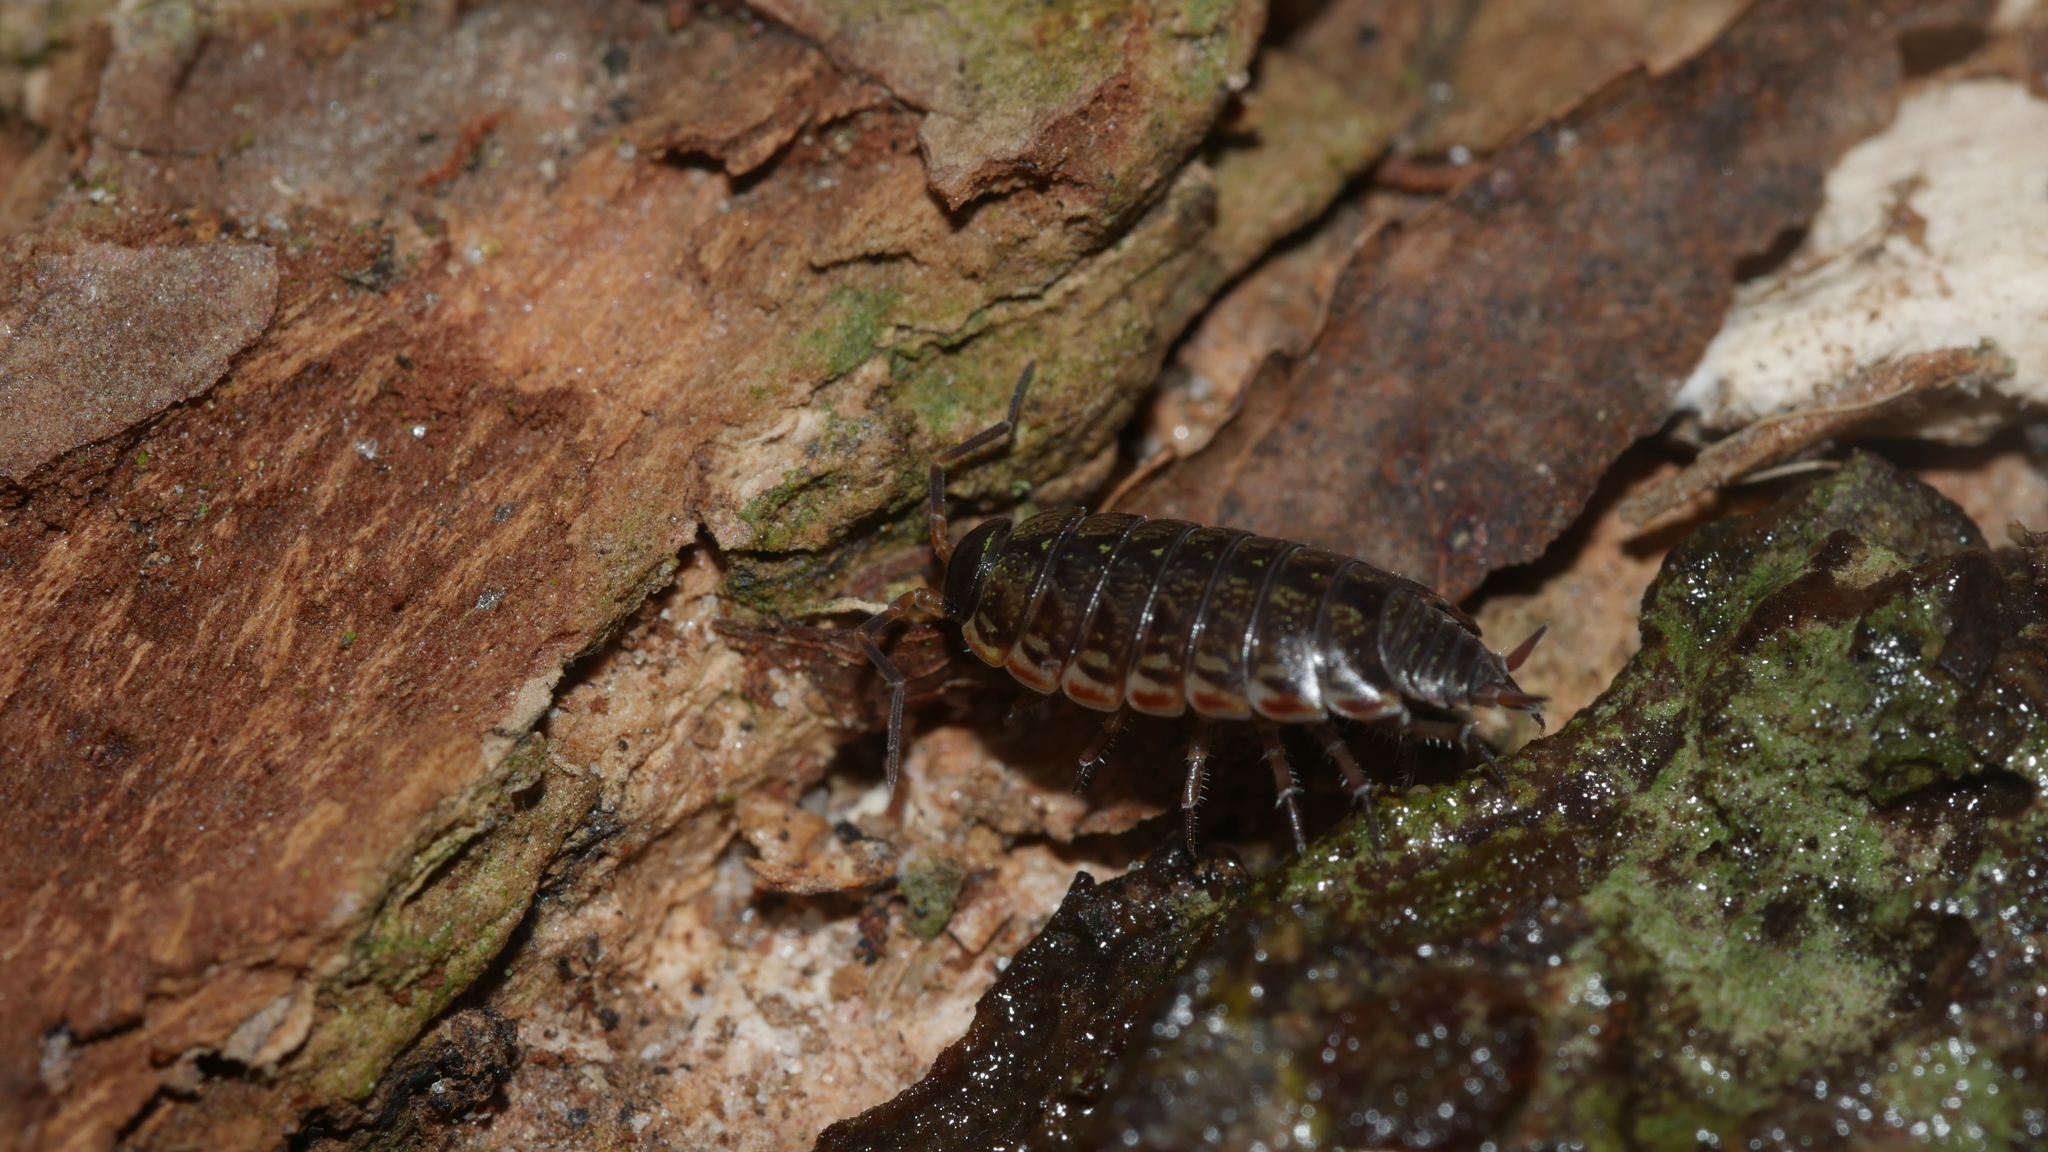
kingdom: Animalia
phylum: Arthropoda
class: Malacostraca
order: Isopoda
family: Philosciidae
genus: Philoscia
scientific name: Philoscia muscorum
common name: Common striped woodlouse
